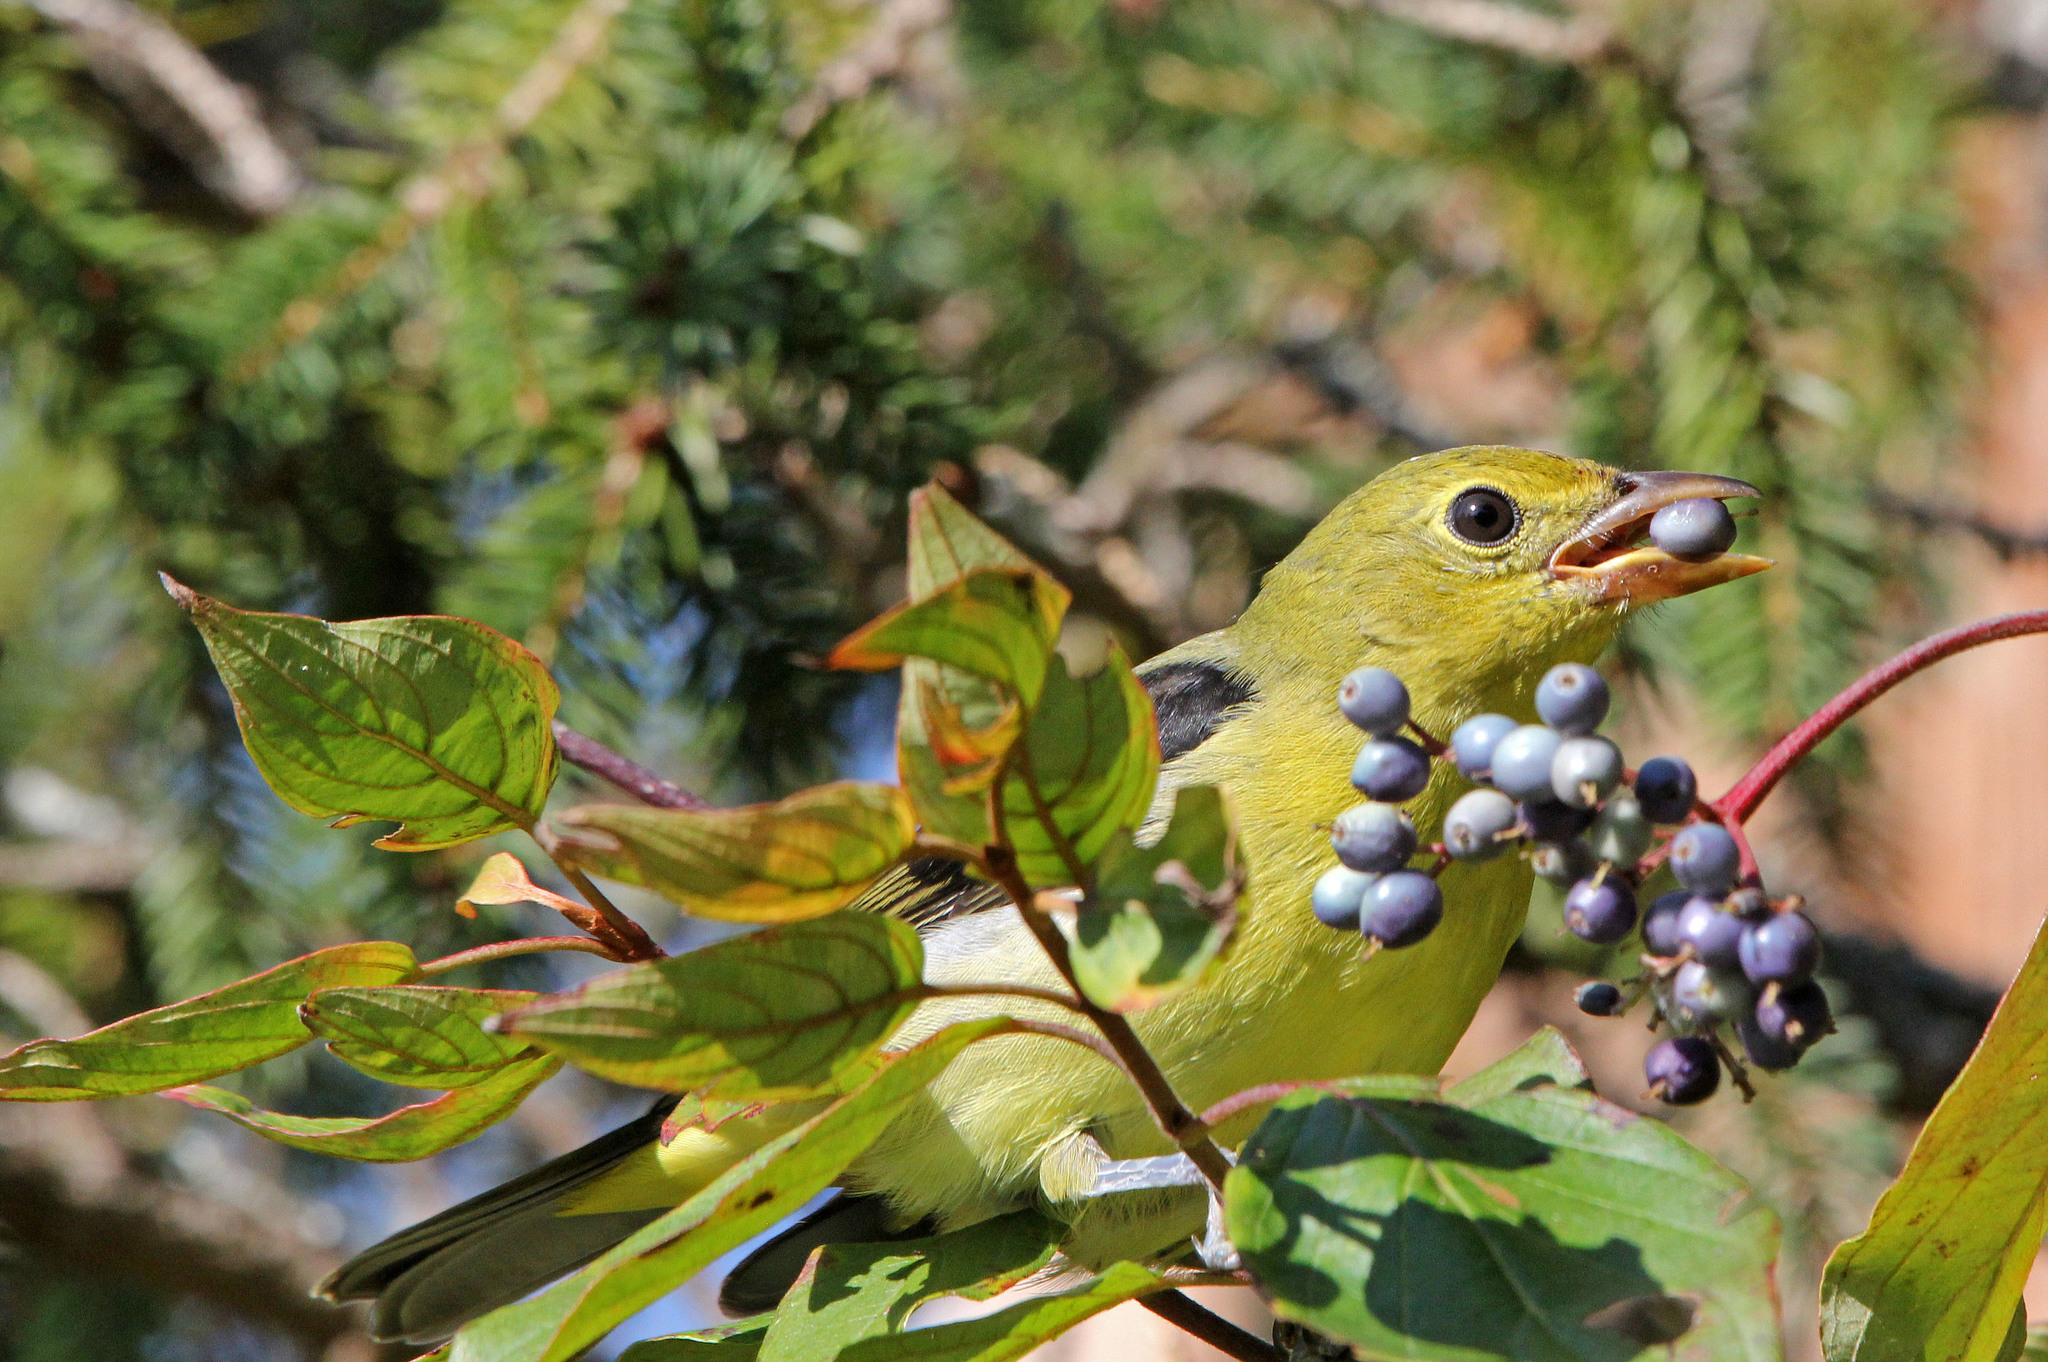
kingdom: Animalia
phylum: Chordata
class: Aves
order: Passeriformes
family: Cardinalidae
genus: Piranga
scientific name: Piranga olivacea
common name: Scarlet tanager
